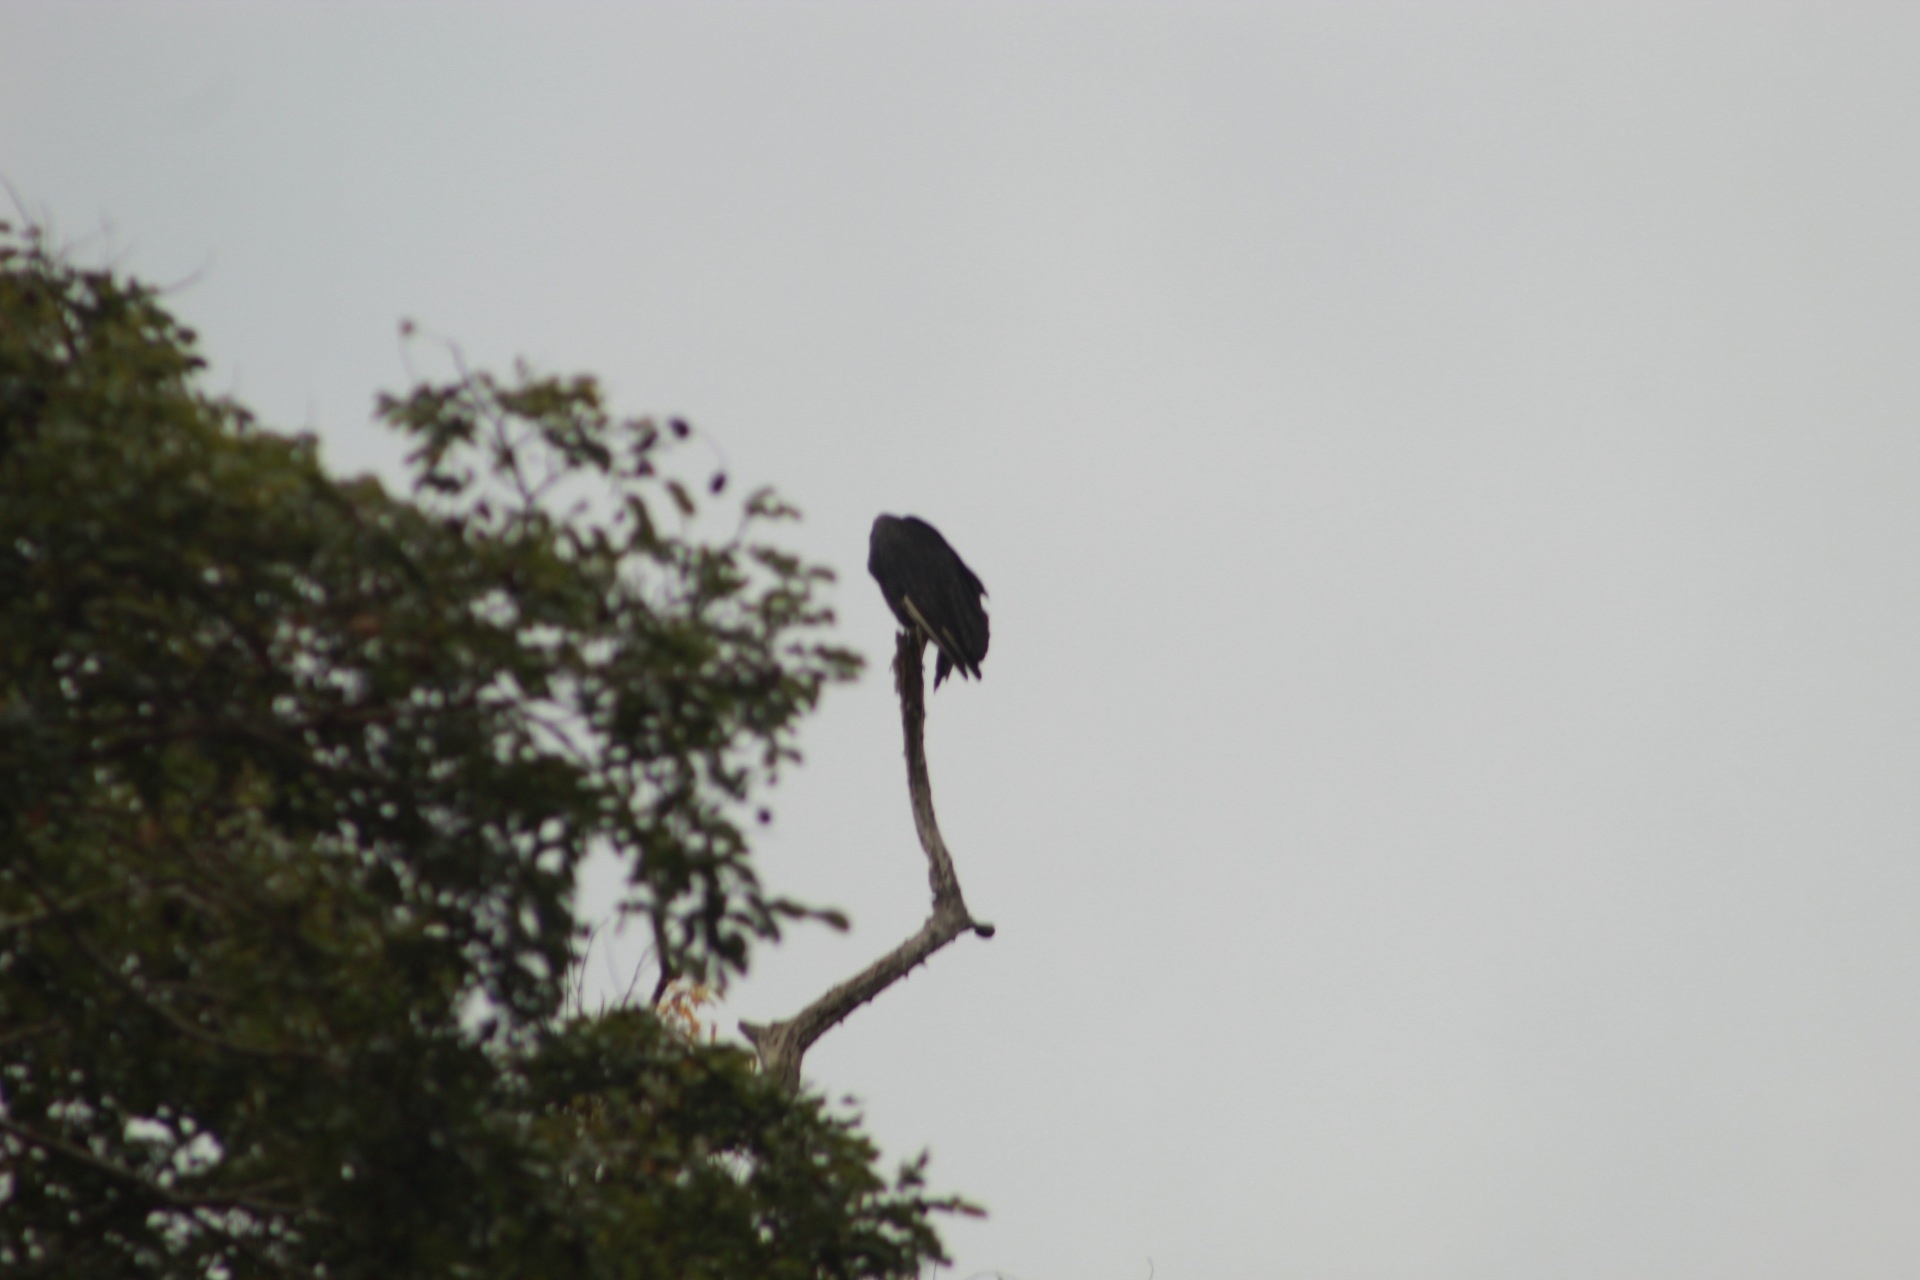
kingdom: Animalia
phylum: Chordata
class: Aves
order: Accipitriformes
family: Cathartidae
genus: Coragyps
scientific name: Coragyps atratus
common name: Black vulture
